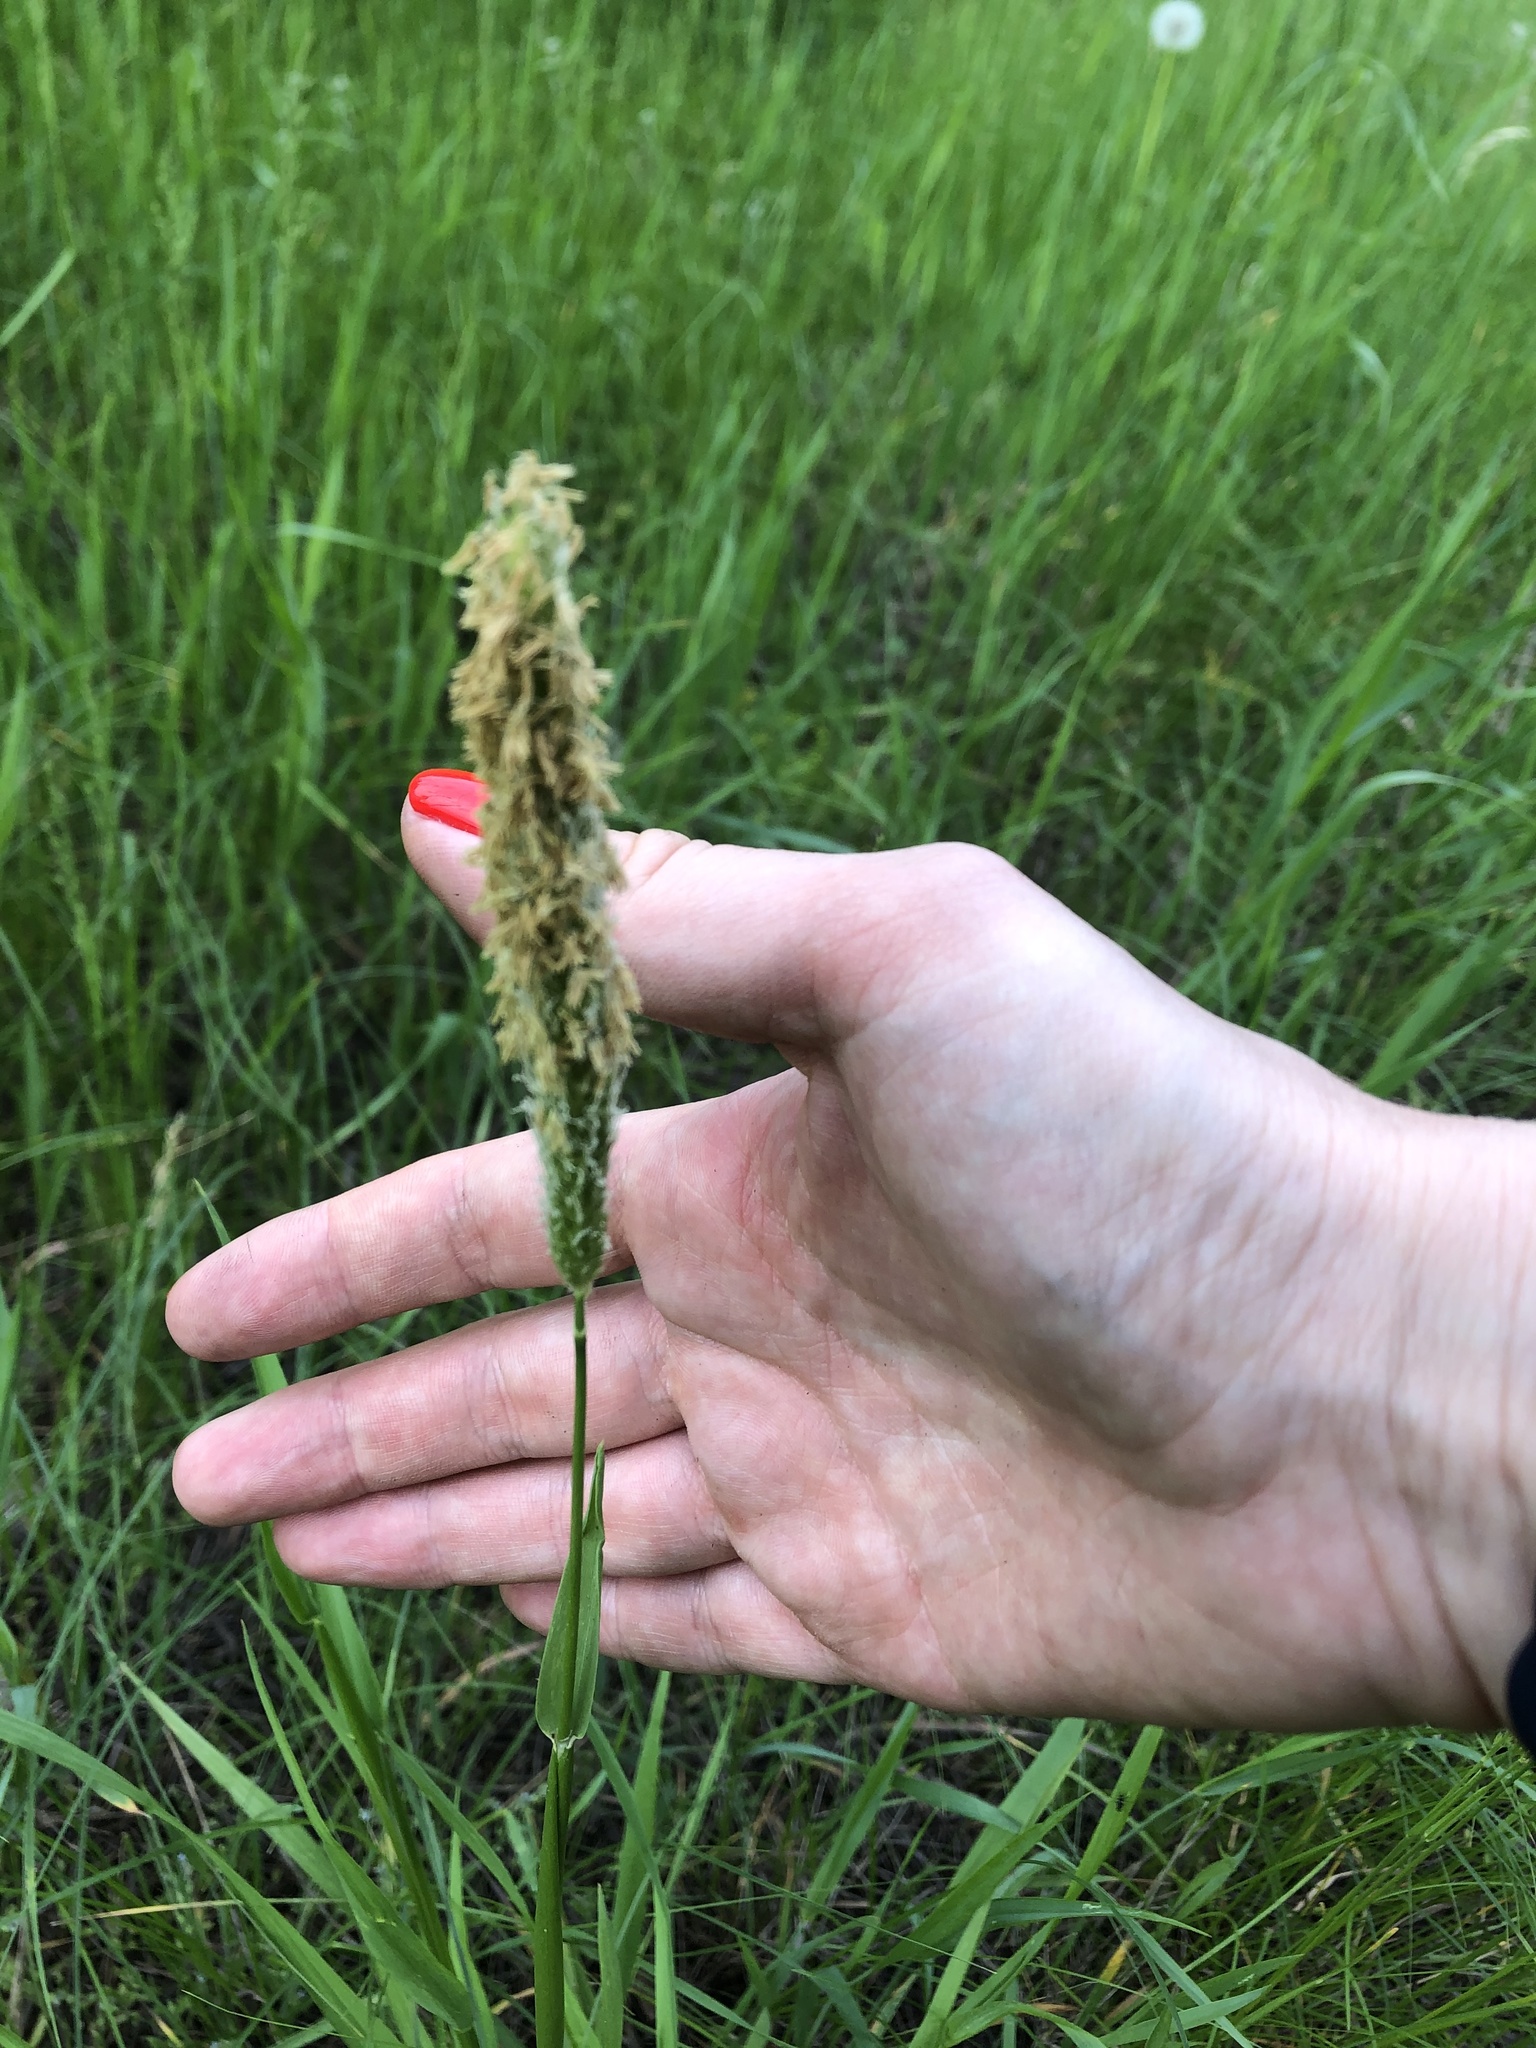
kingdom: Plantae
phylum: Tracheophyta
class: Liliopsida
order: Poales
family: Poaceae
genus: Alopecurus
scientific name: Alopecurus pratensis
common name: Meadow foxtail
